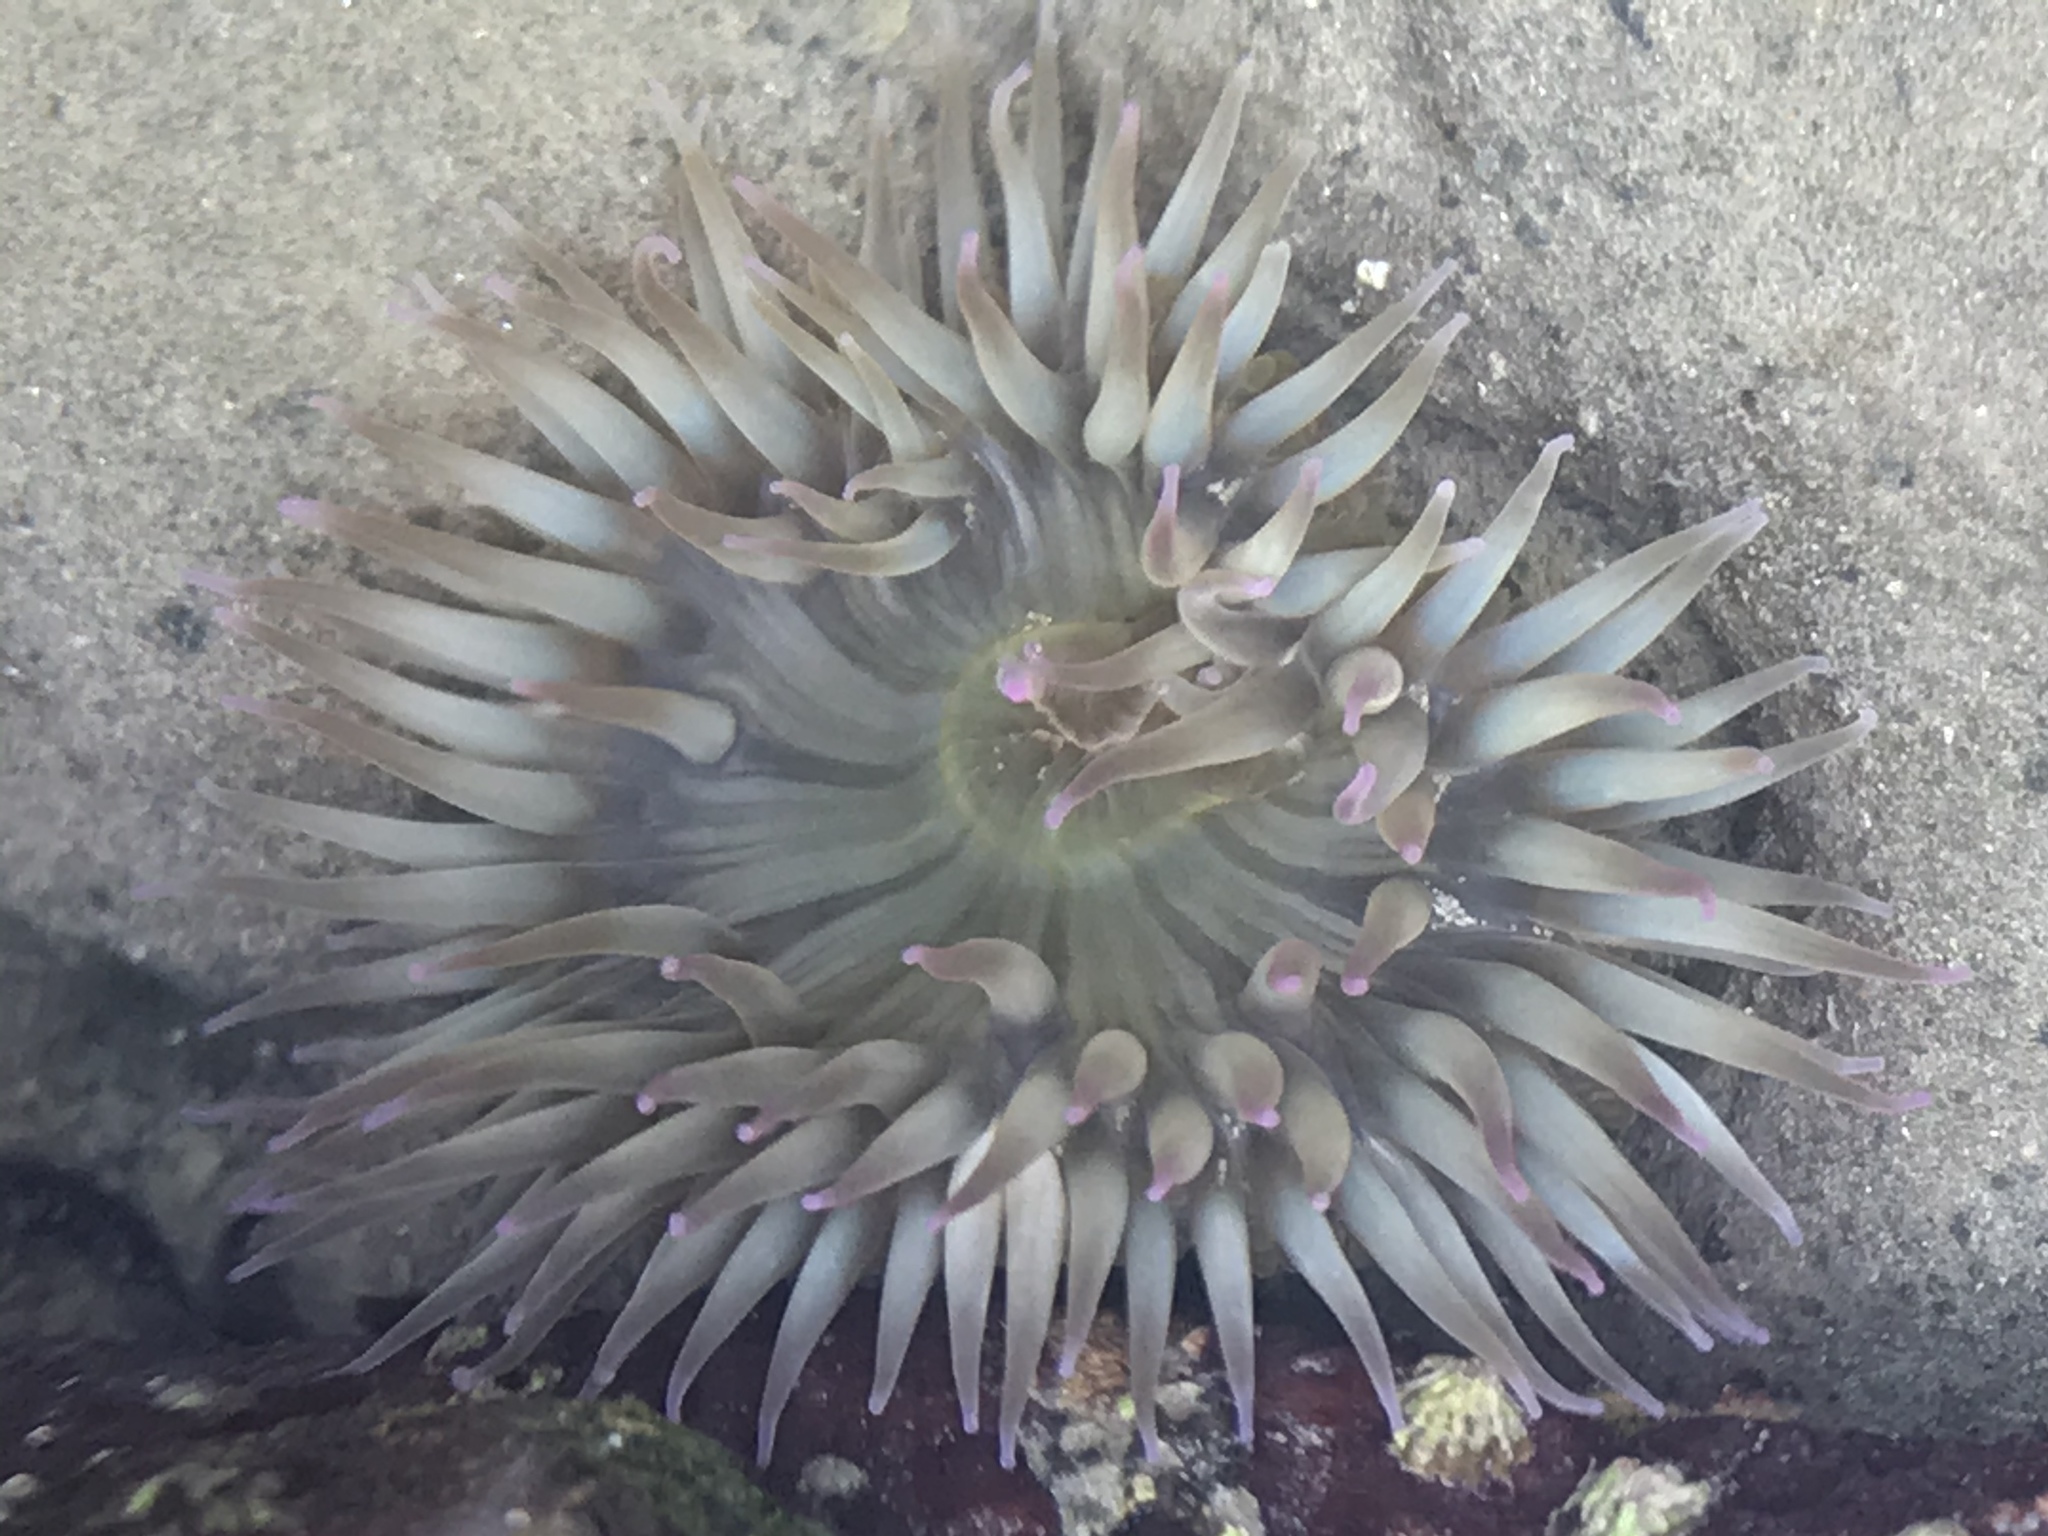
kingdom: Animalia
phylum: Cnidaria
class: Anthozoa
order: Actiniaria
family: Actiniidae
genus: Anthopleura
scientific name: Anthopleura elegantissima
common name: Clonal anemone
